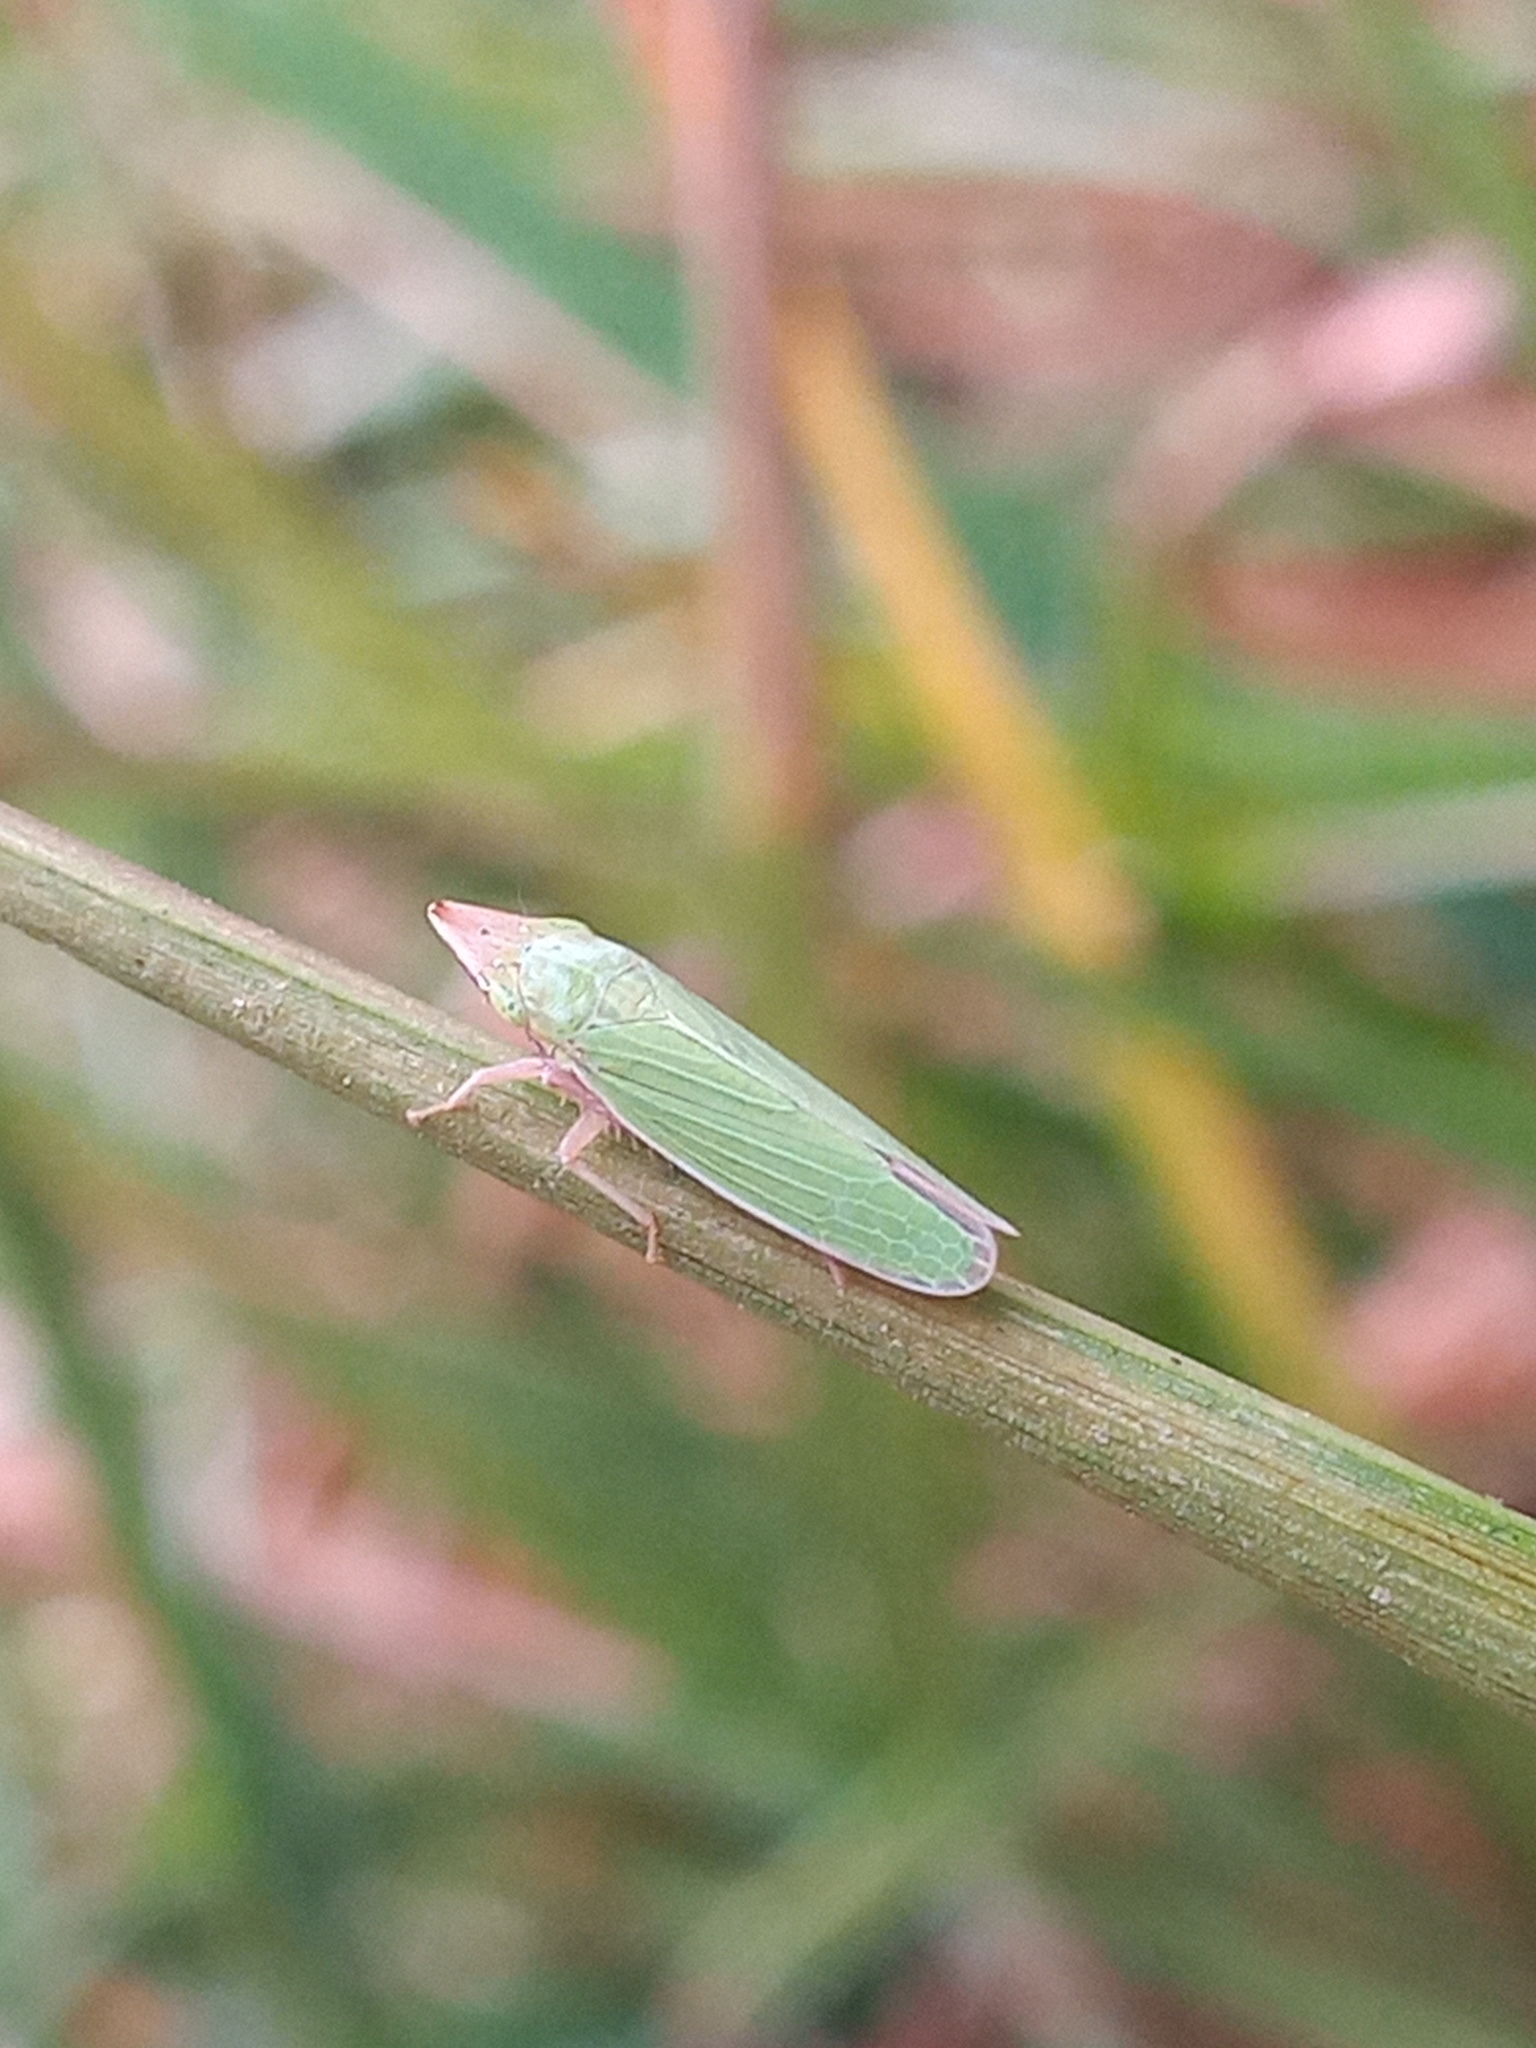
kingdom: Animalia
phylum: Arthropoda
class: Insecta
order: Hemiptera
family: Cicadellidae
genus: Draeculacephala
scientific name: Draeculacephala soluta
